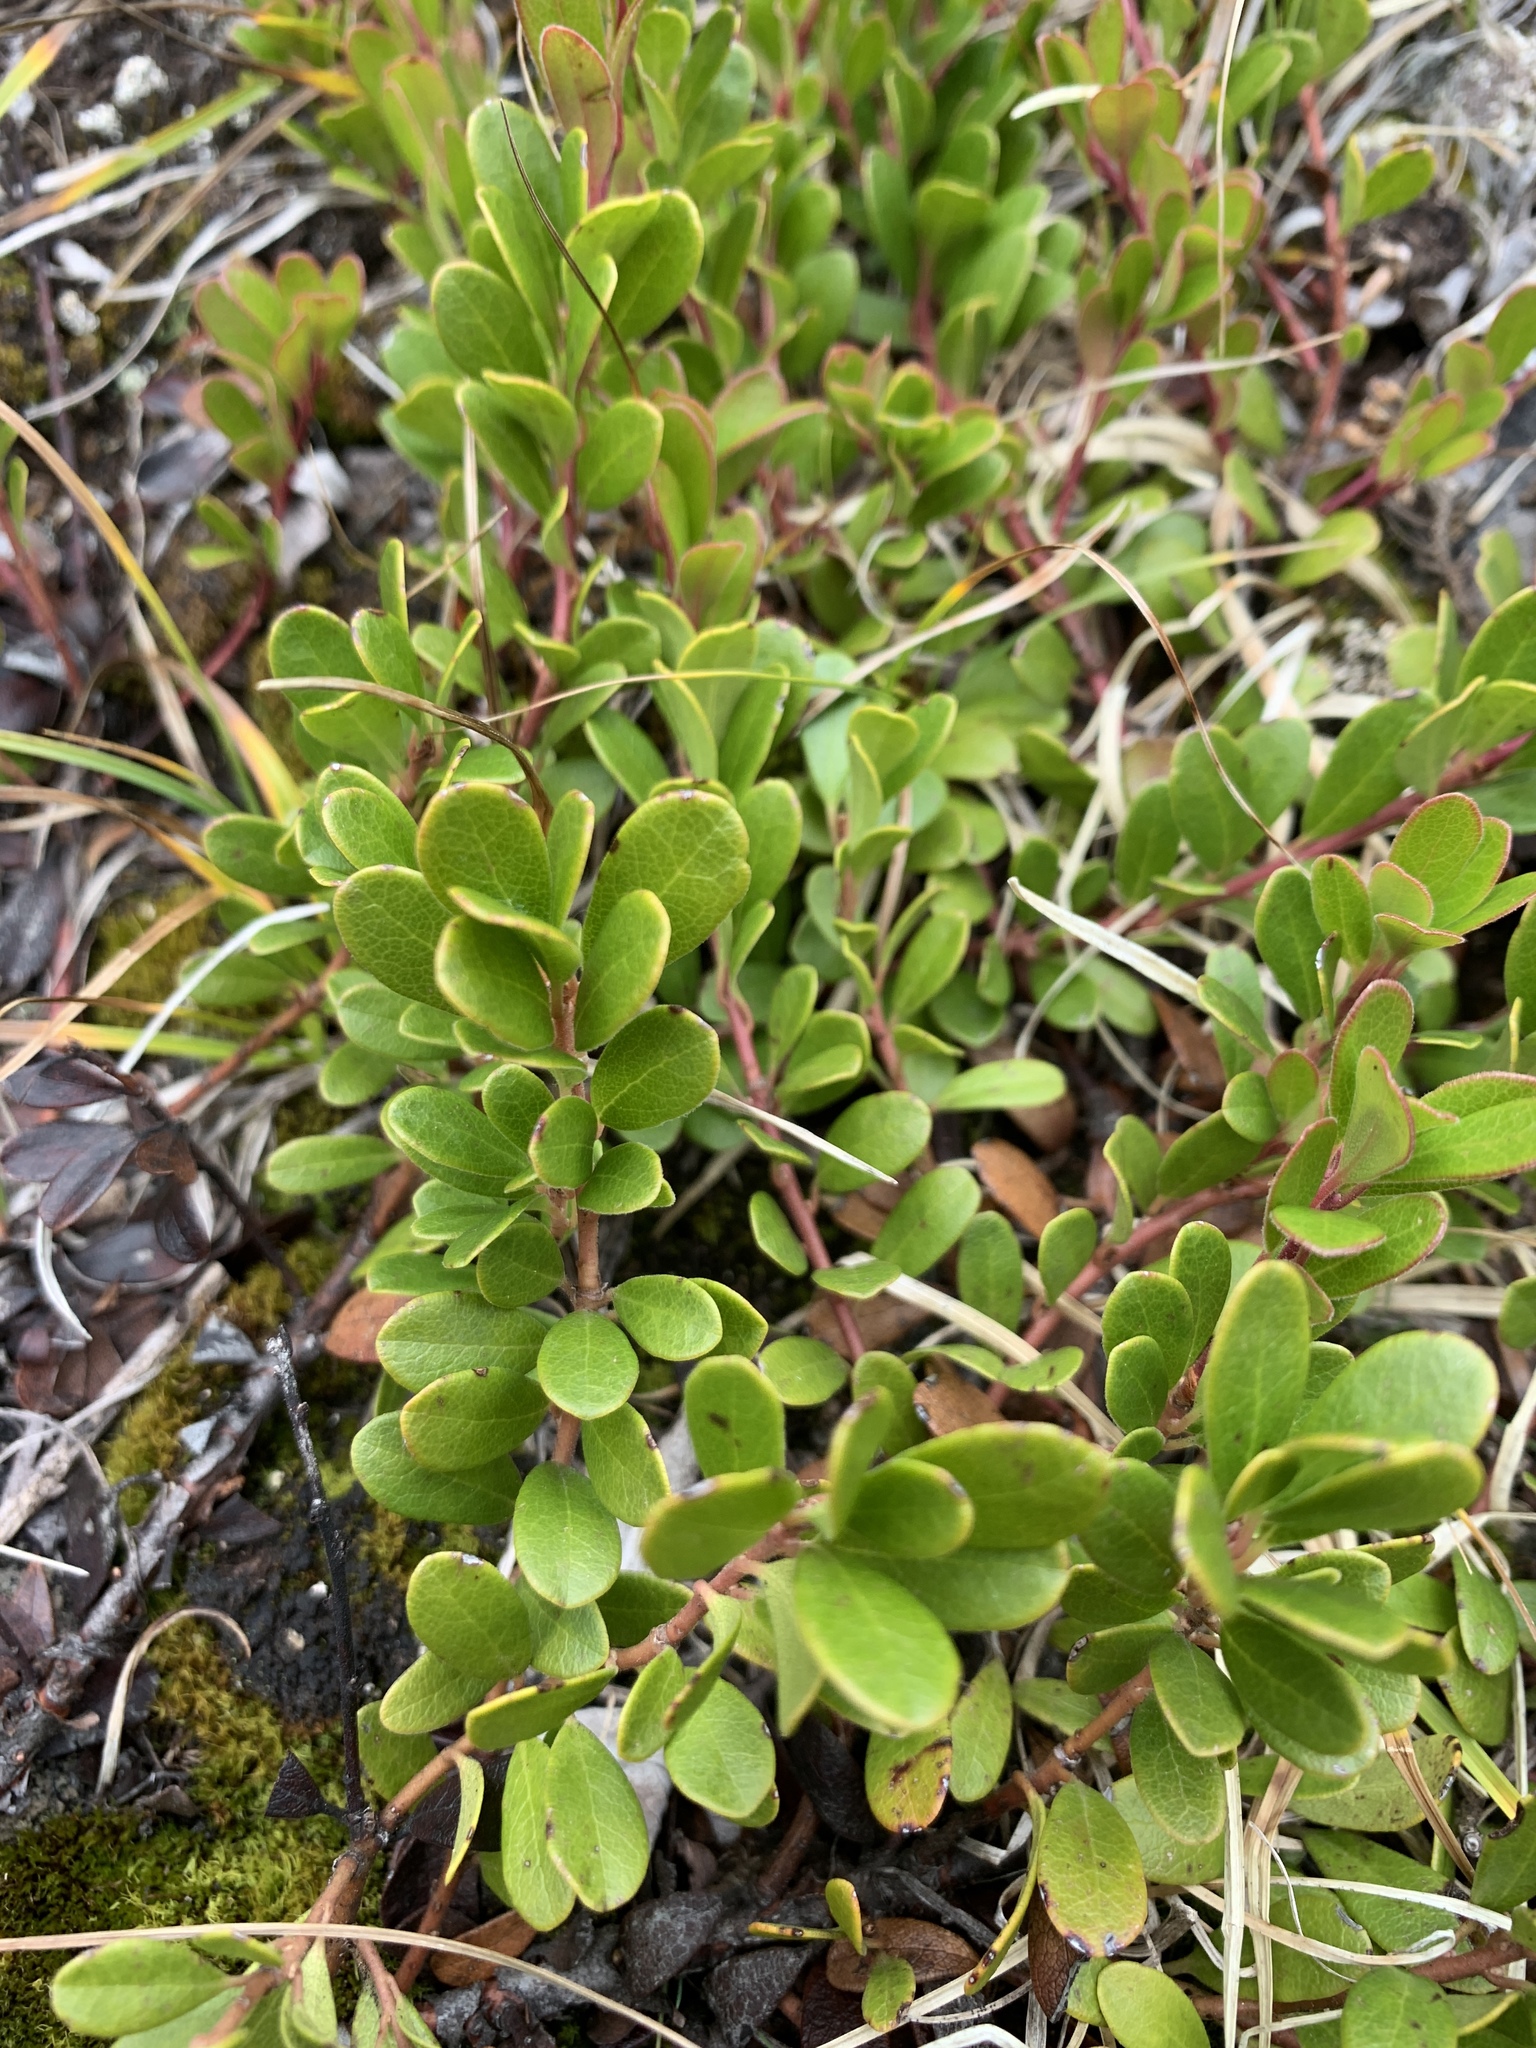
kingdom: Plantae
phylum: Tracheophyta
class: Magnoliopsida
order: Ericales
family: Ericaceae
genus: Arctostaphylos
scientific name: Arctostaphylos uva-ursi
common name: Bearberry
